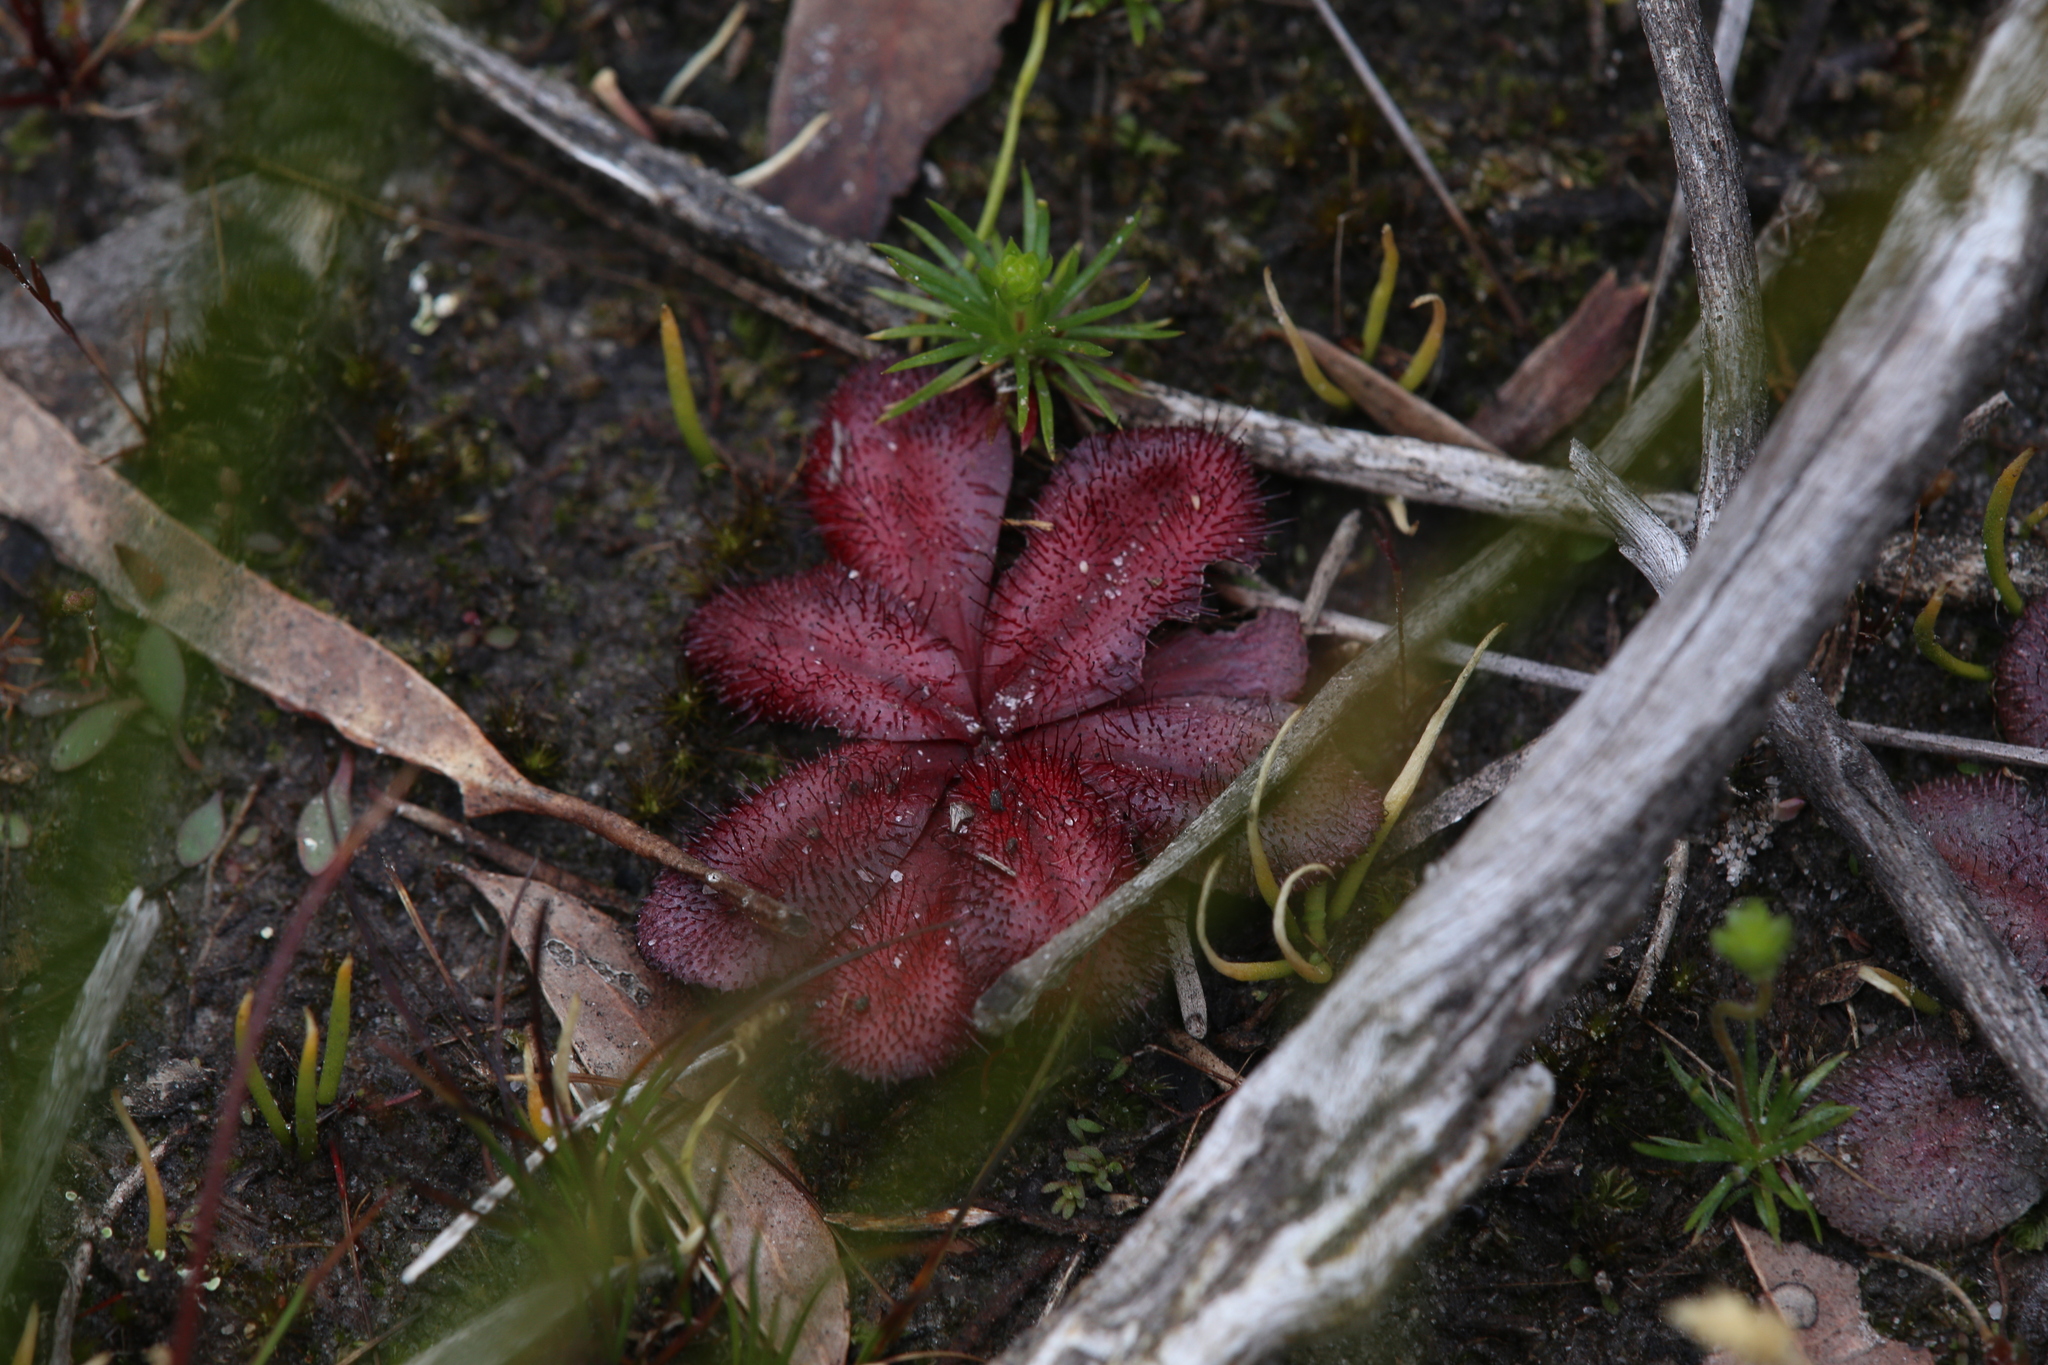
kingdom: Plantae
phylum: Tracheophyta
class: Magnoliopsida
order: Caryophyllales
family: Droseraceae
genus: Drosera
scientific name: Drosera rosulata
